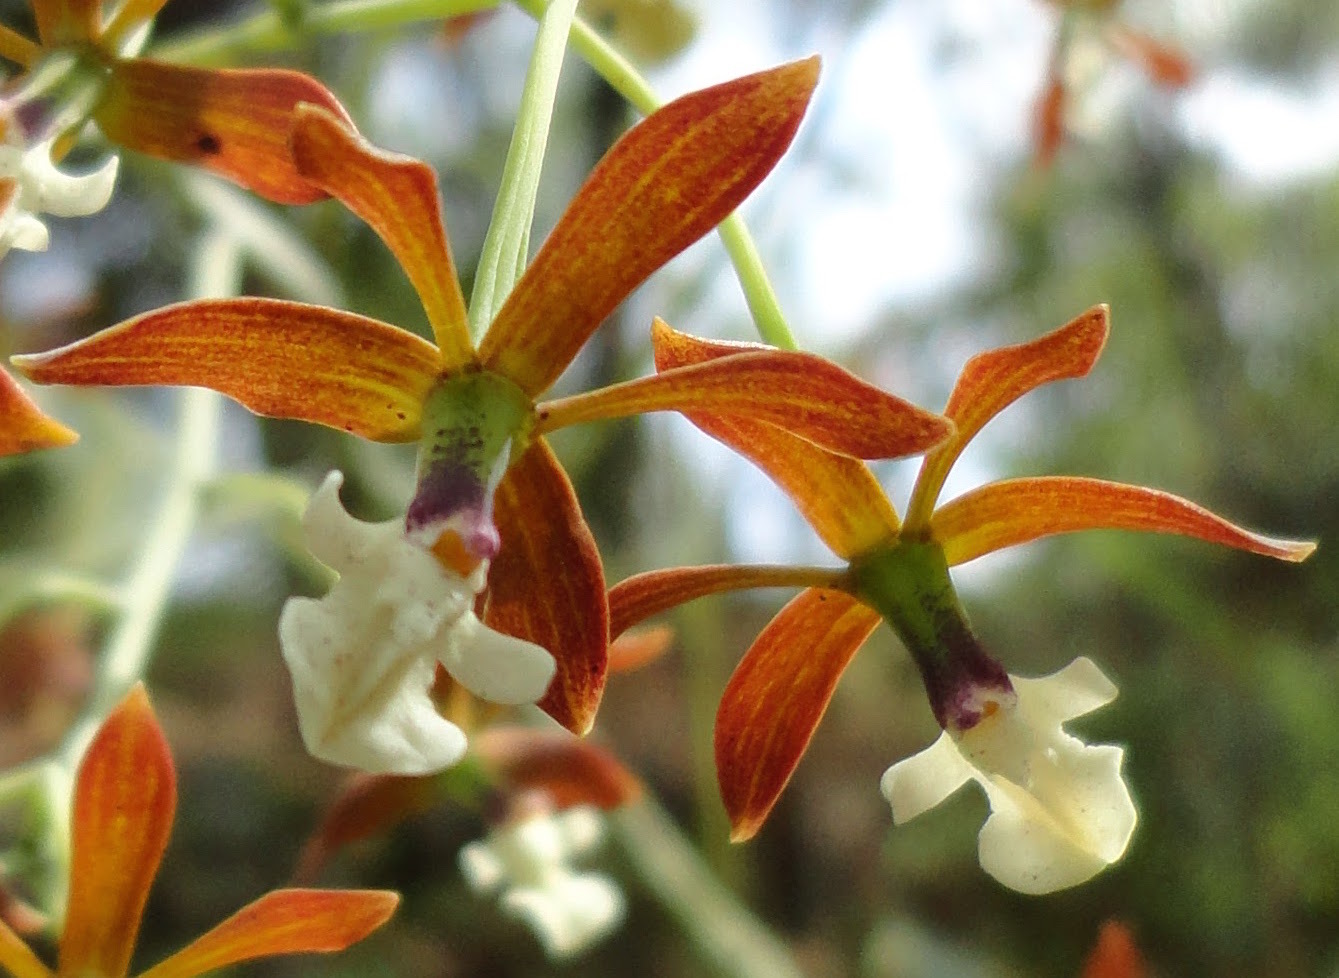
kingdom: Plantae
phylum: Tracheophyta
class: Liliopsida
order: Asparagales
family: Orchidaceae
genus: Prosthechea
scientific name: Prosthechea michuacana
